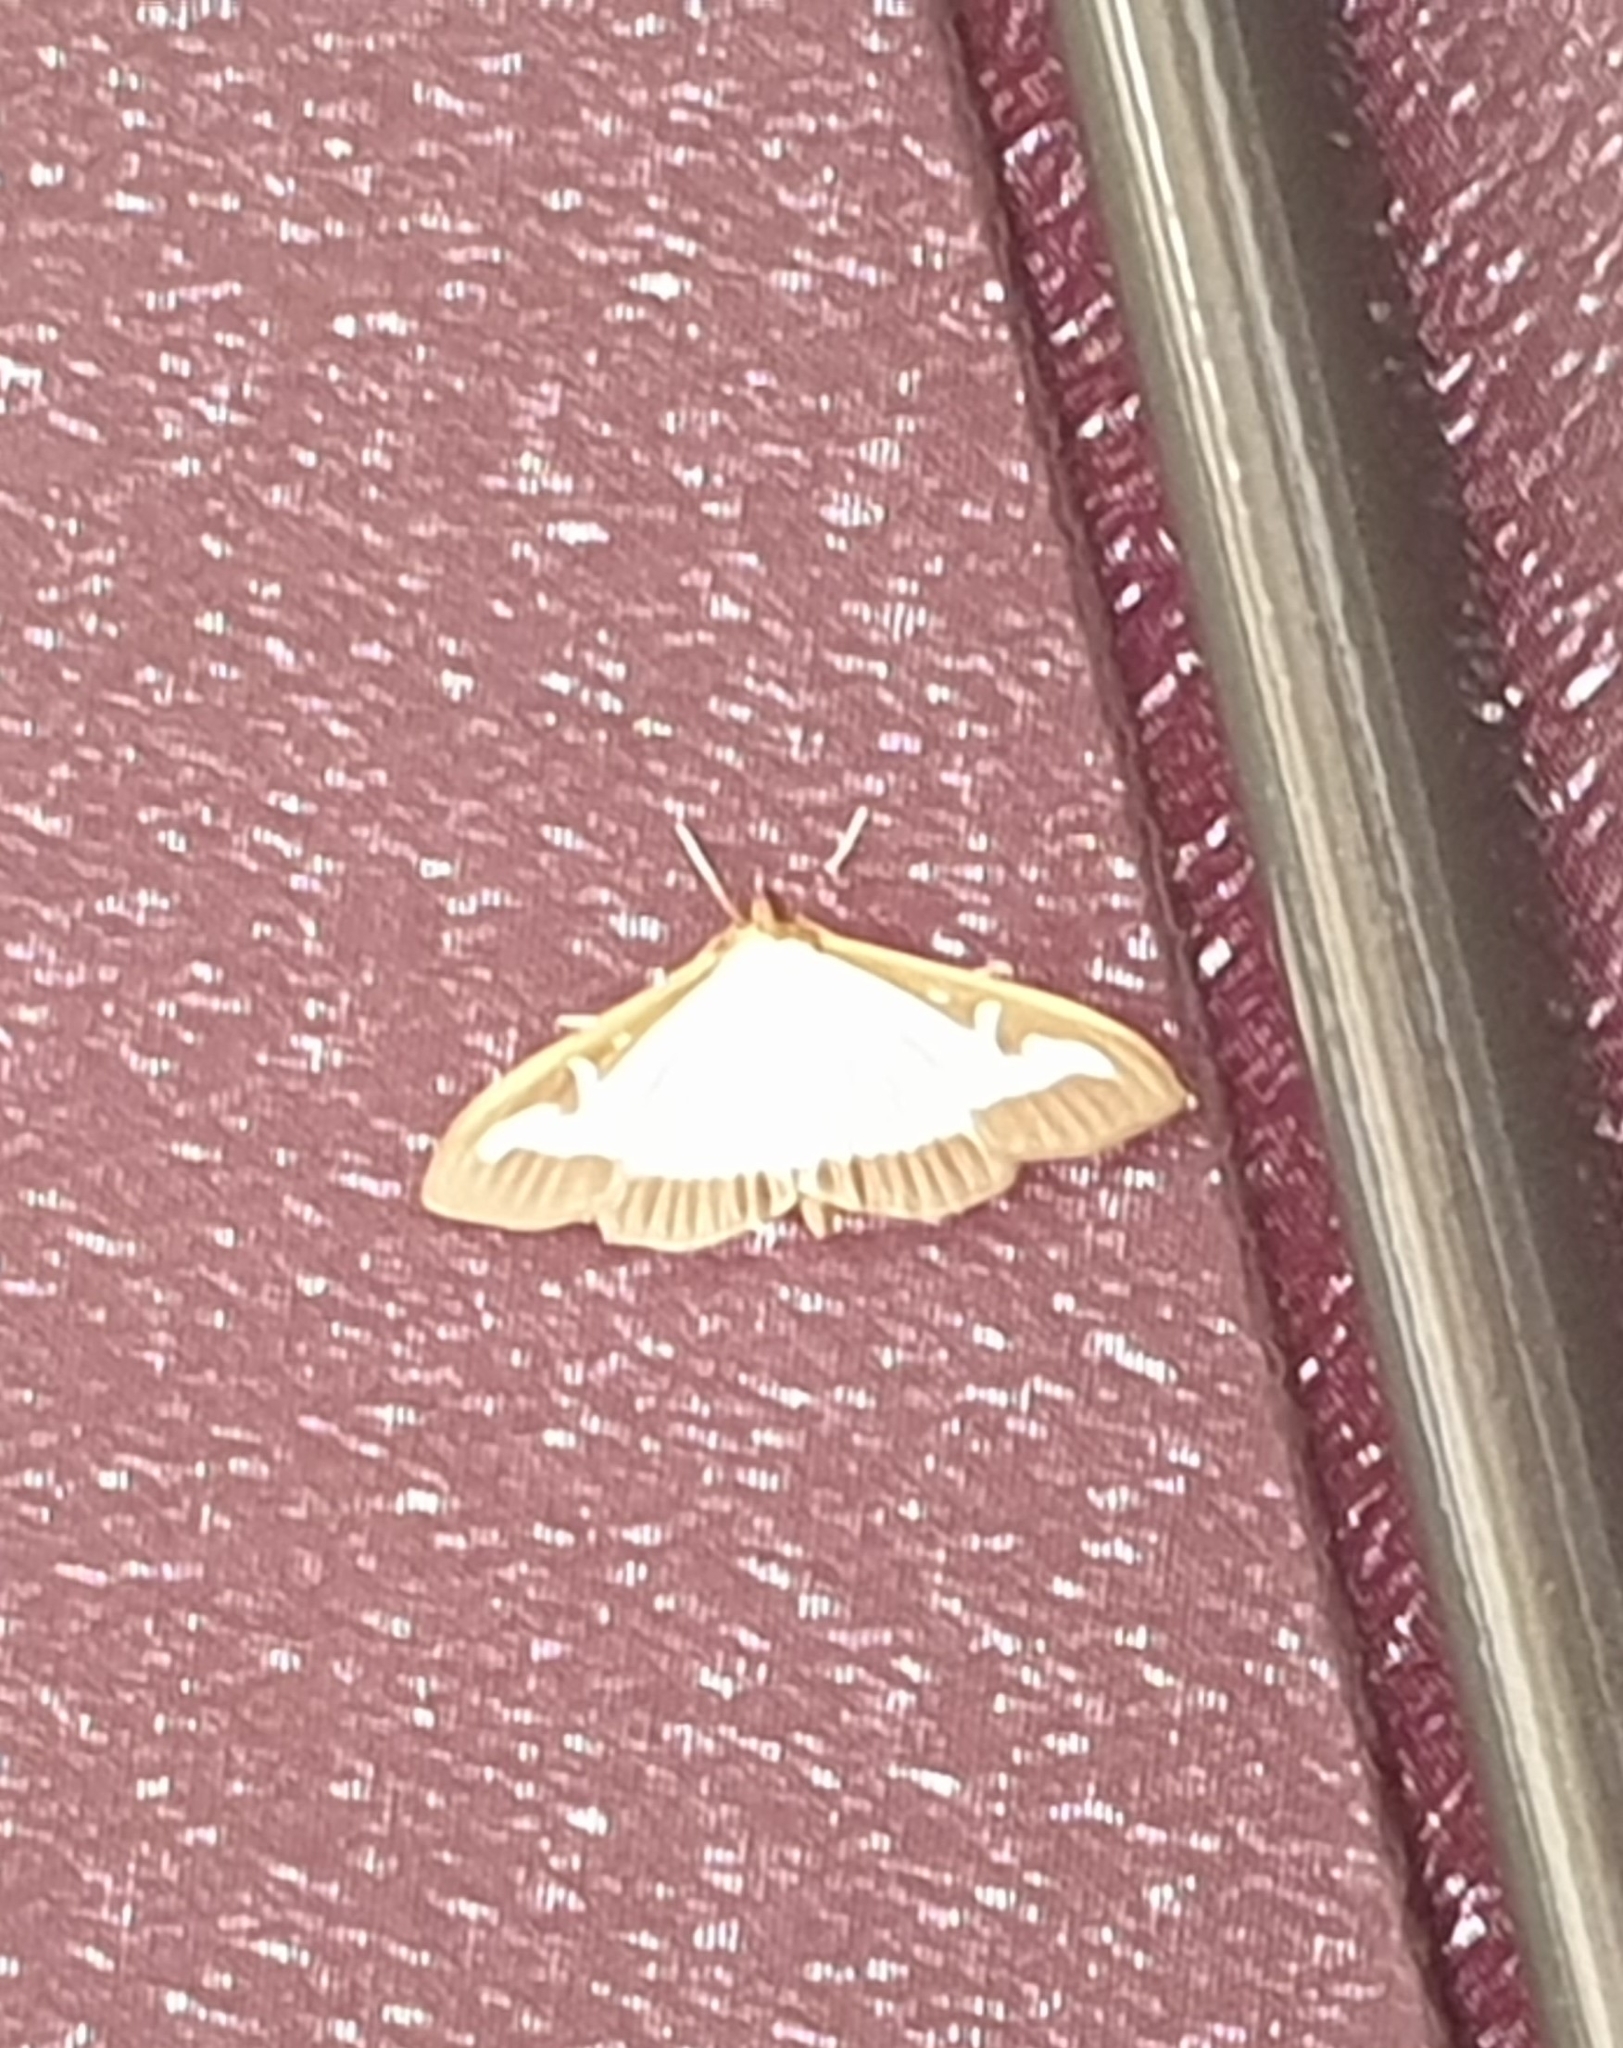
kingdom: Animalia
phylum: Arthropoda
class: Insecta
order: Lepidoptera
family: Crambidae
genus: Cydalima
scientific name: Cydalima perspectalis
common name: Box tree moth
